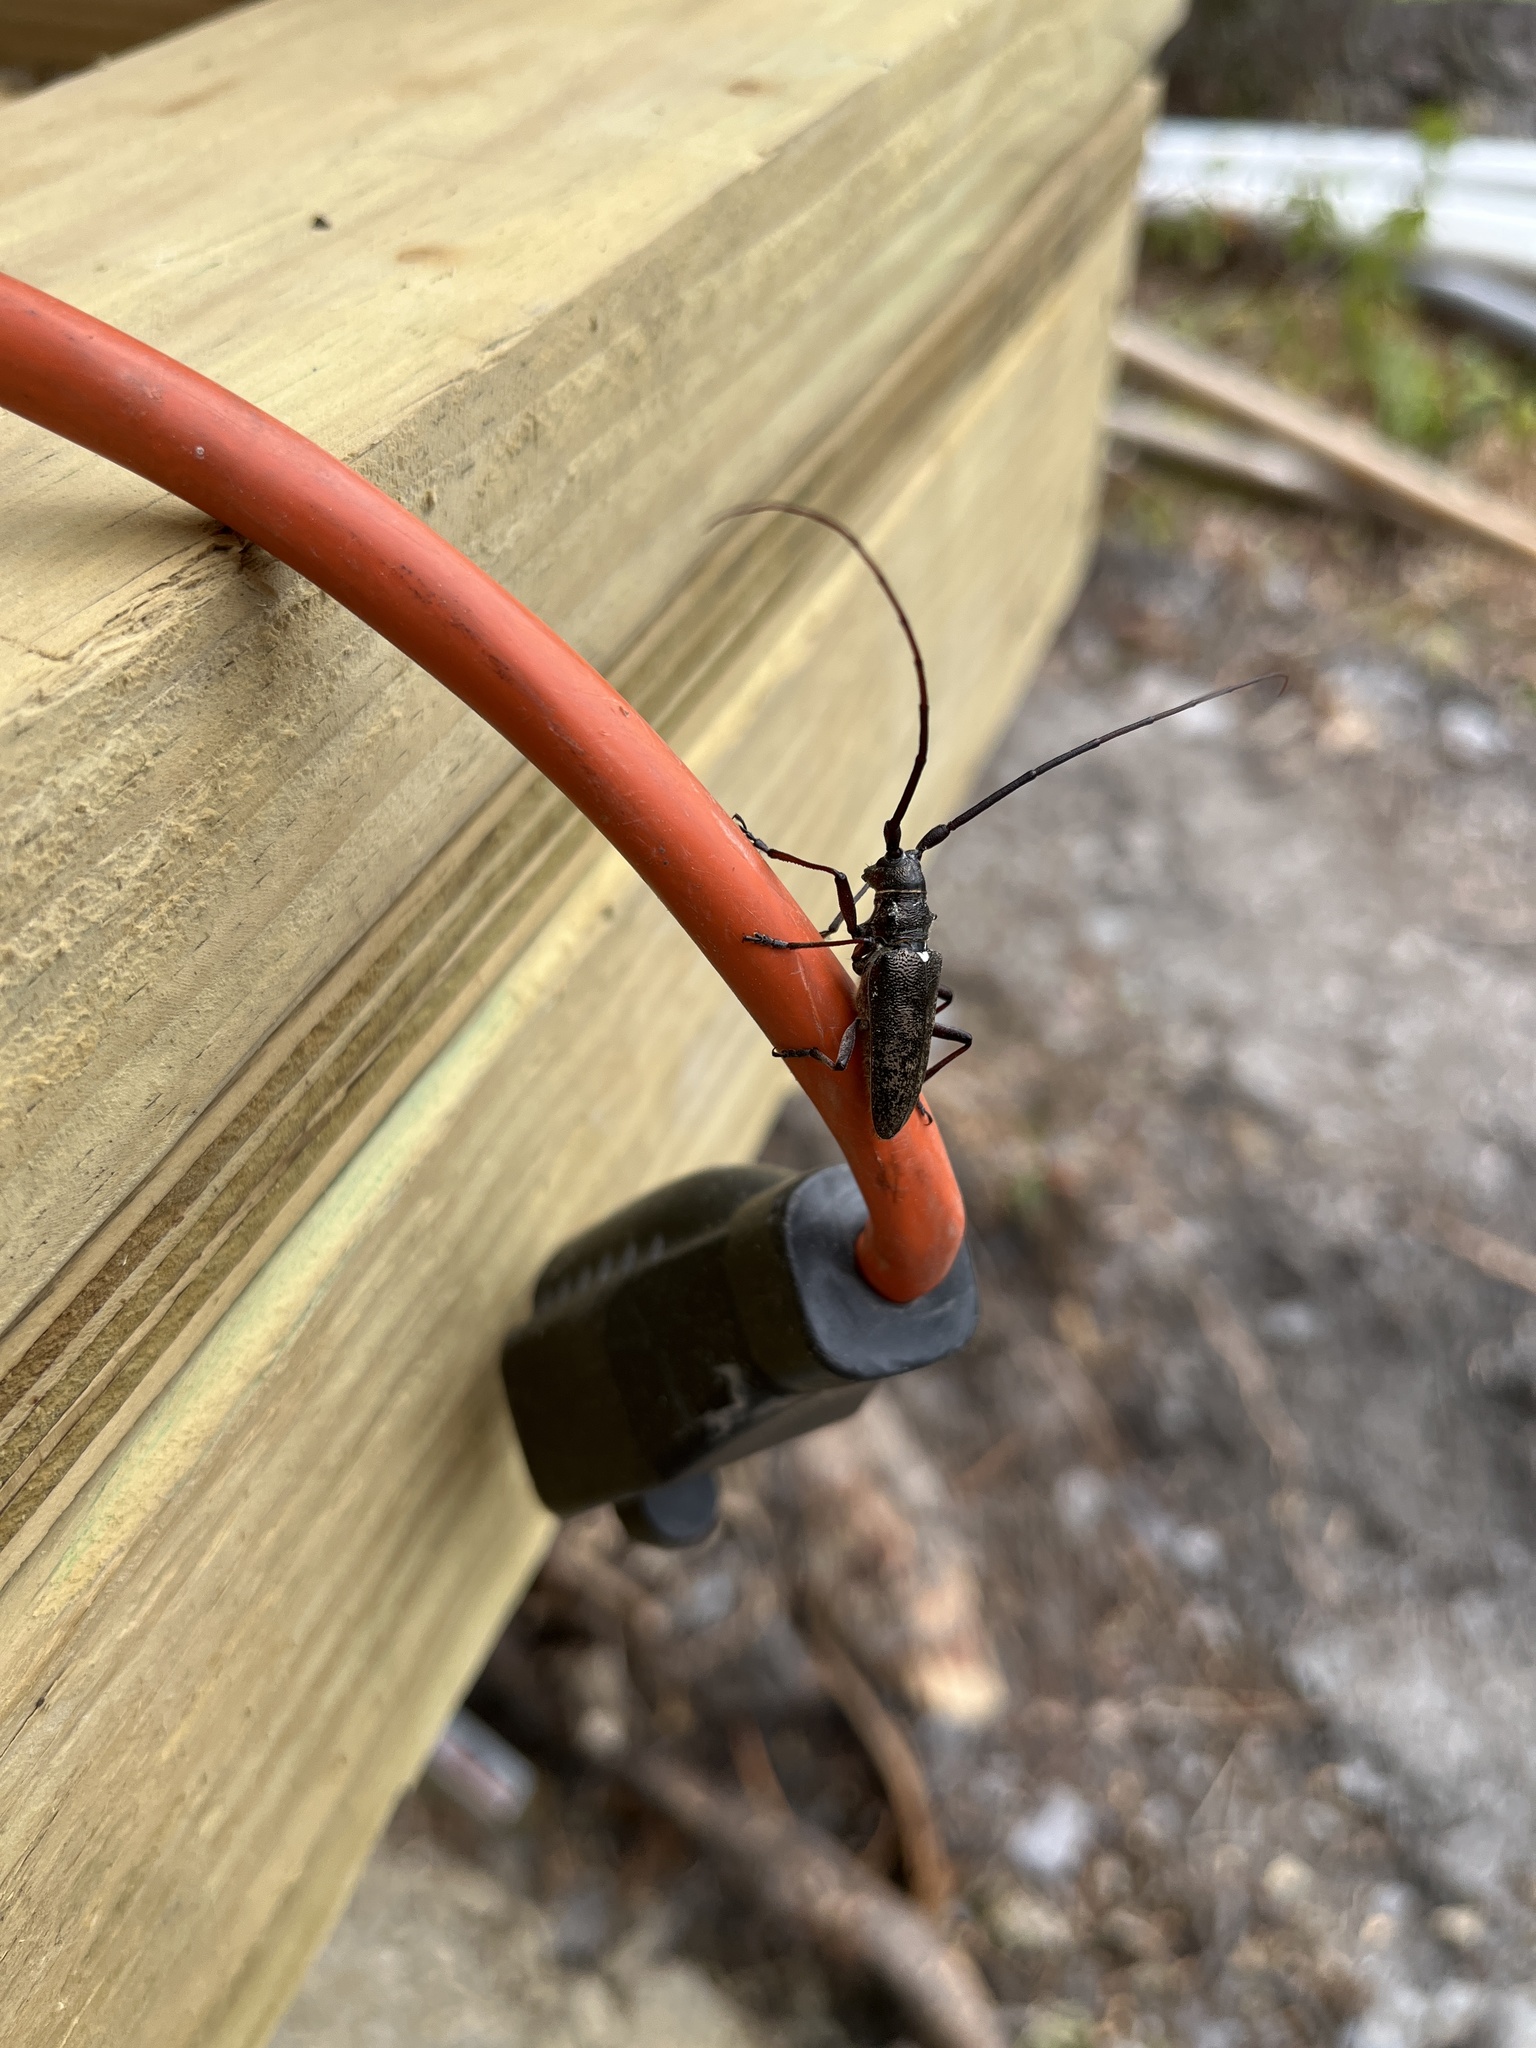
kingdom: Animalia
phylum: Arthropoda
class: Insecta
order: Coleoptera
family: Cerambycidae
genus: Monochamus
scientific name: Monochamus scutellatus
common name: White-spotted sawyer beetle
